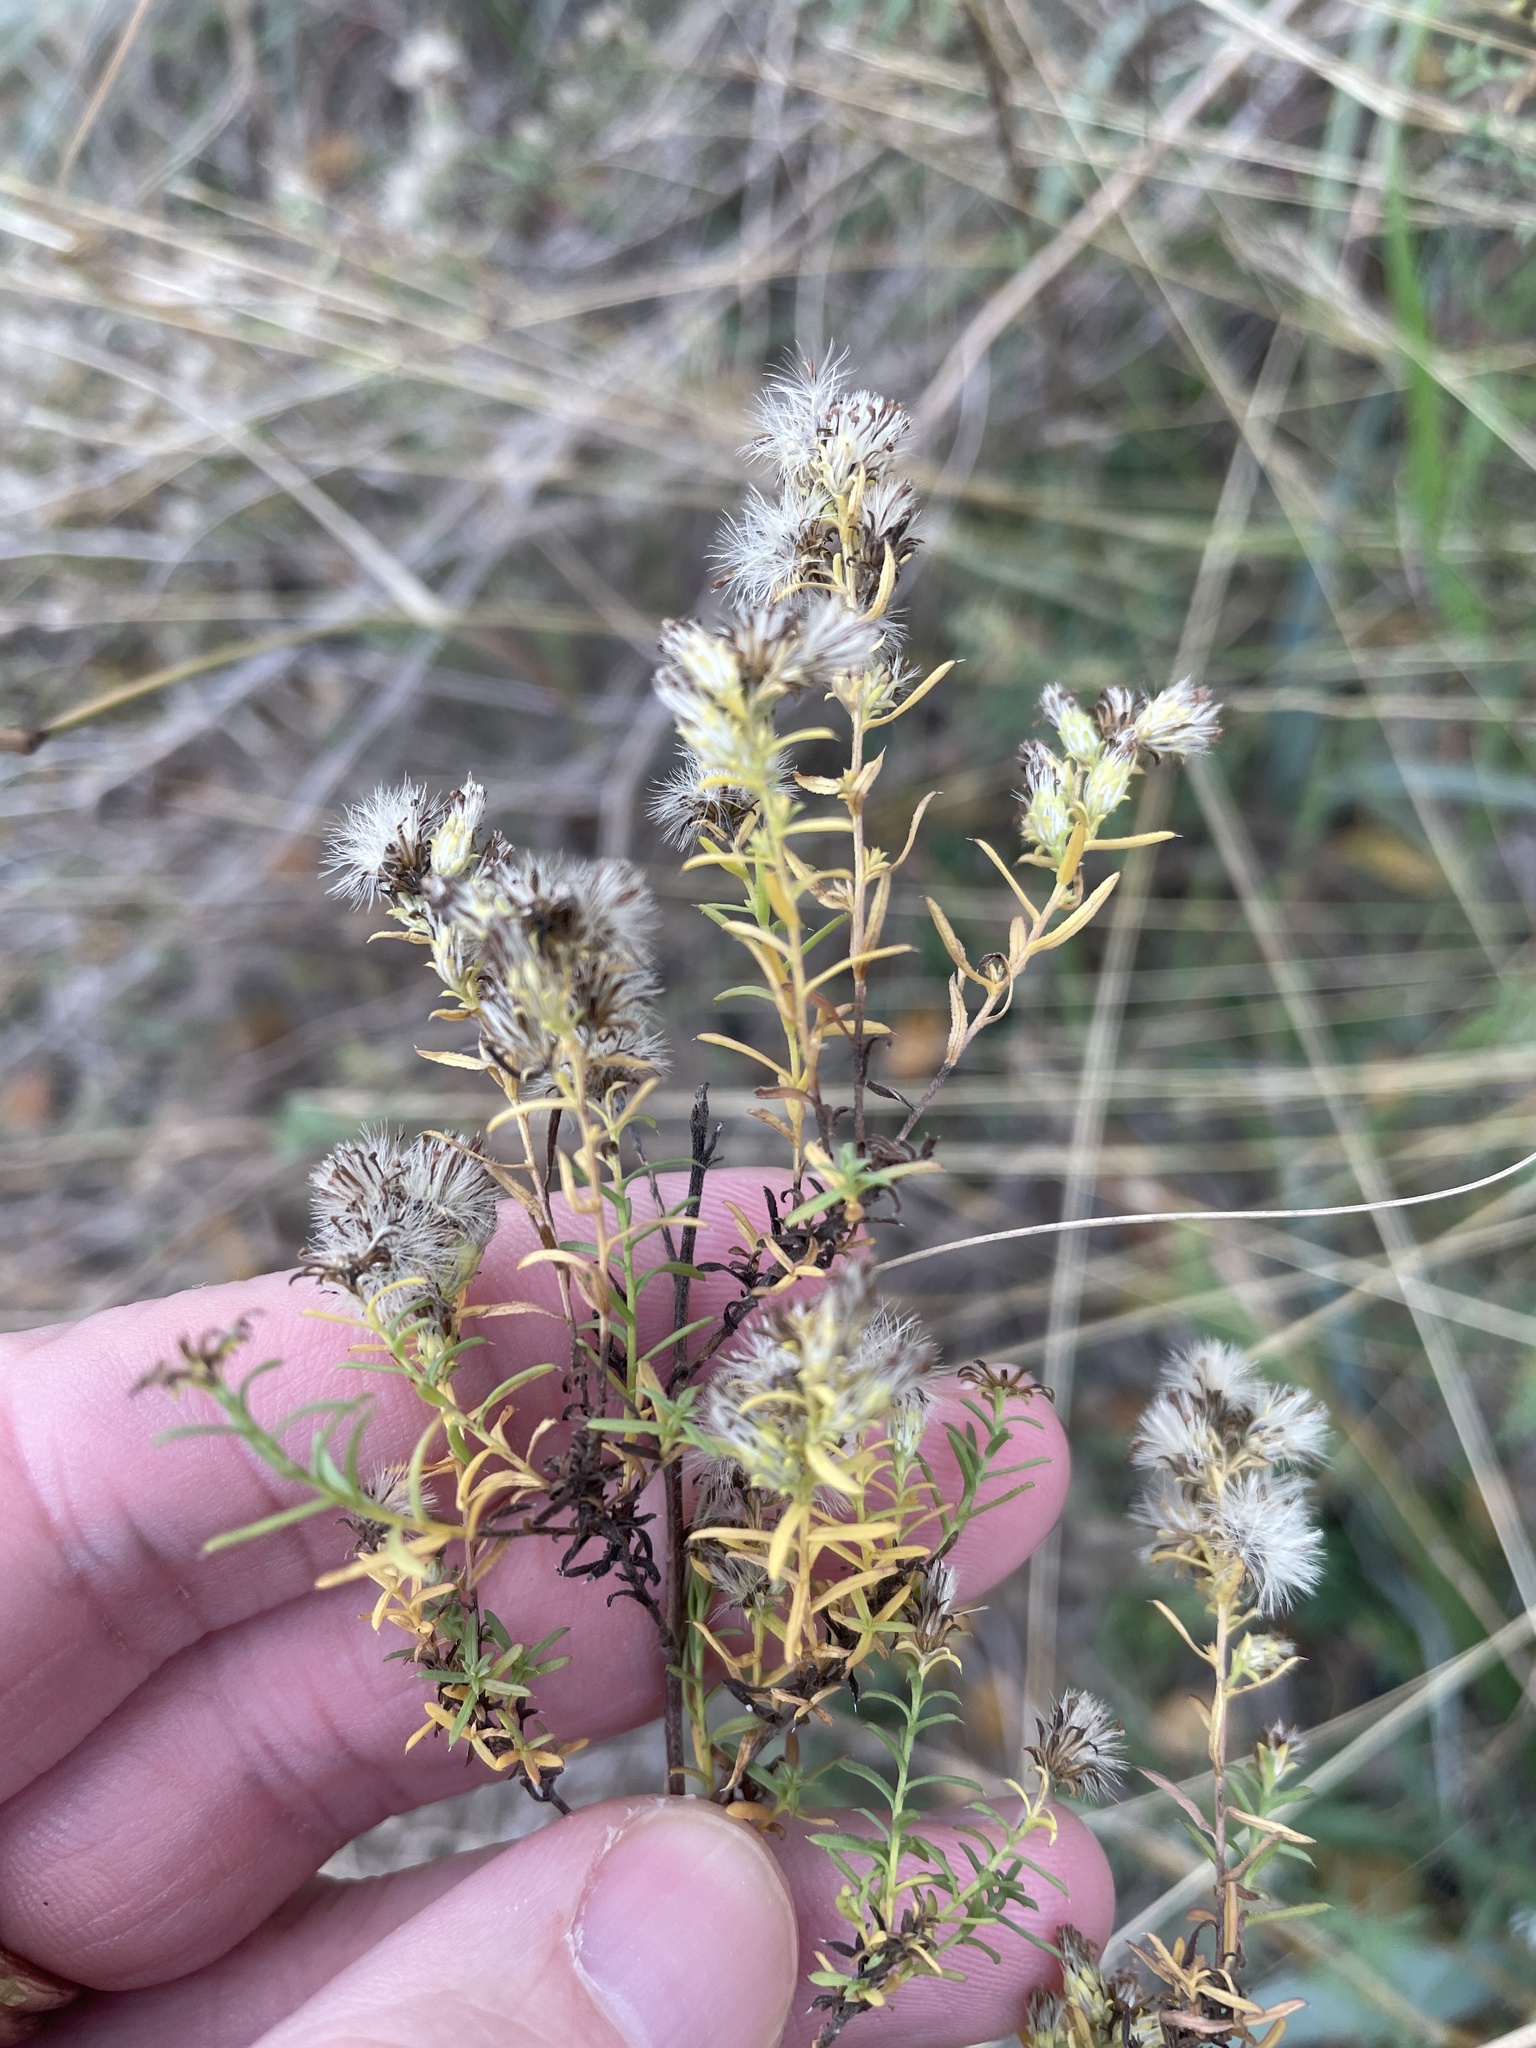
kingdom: Plantae
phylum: Tracheophyta
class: Magnoliopsida
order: Asterales
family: Asteraceae
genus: Symphyotrichum
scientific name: Symphyotrichum ericoides
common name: Heath aster
